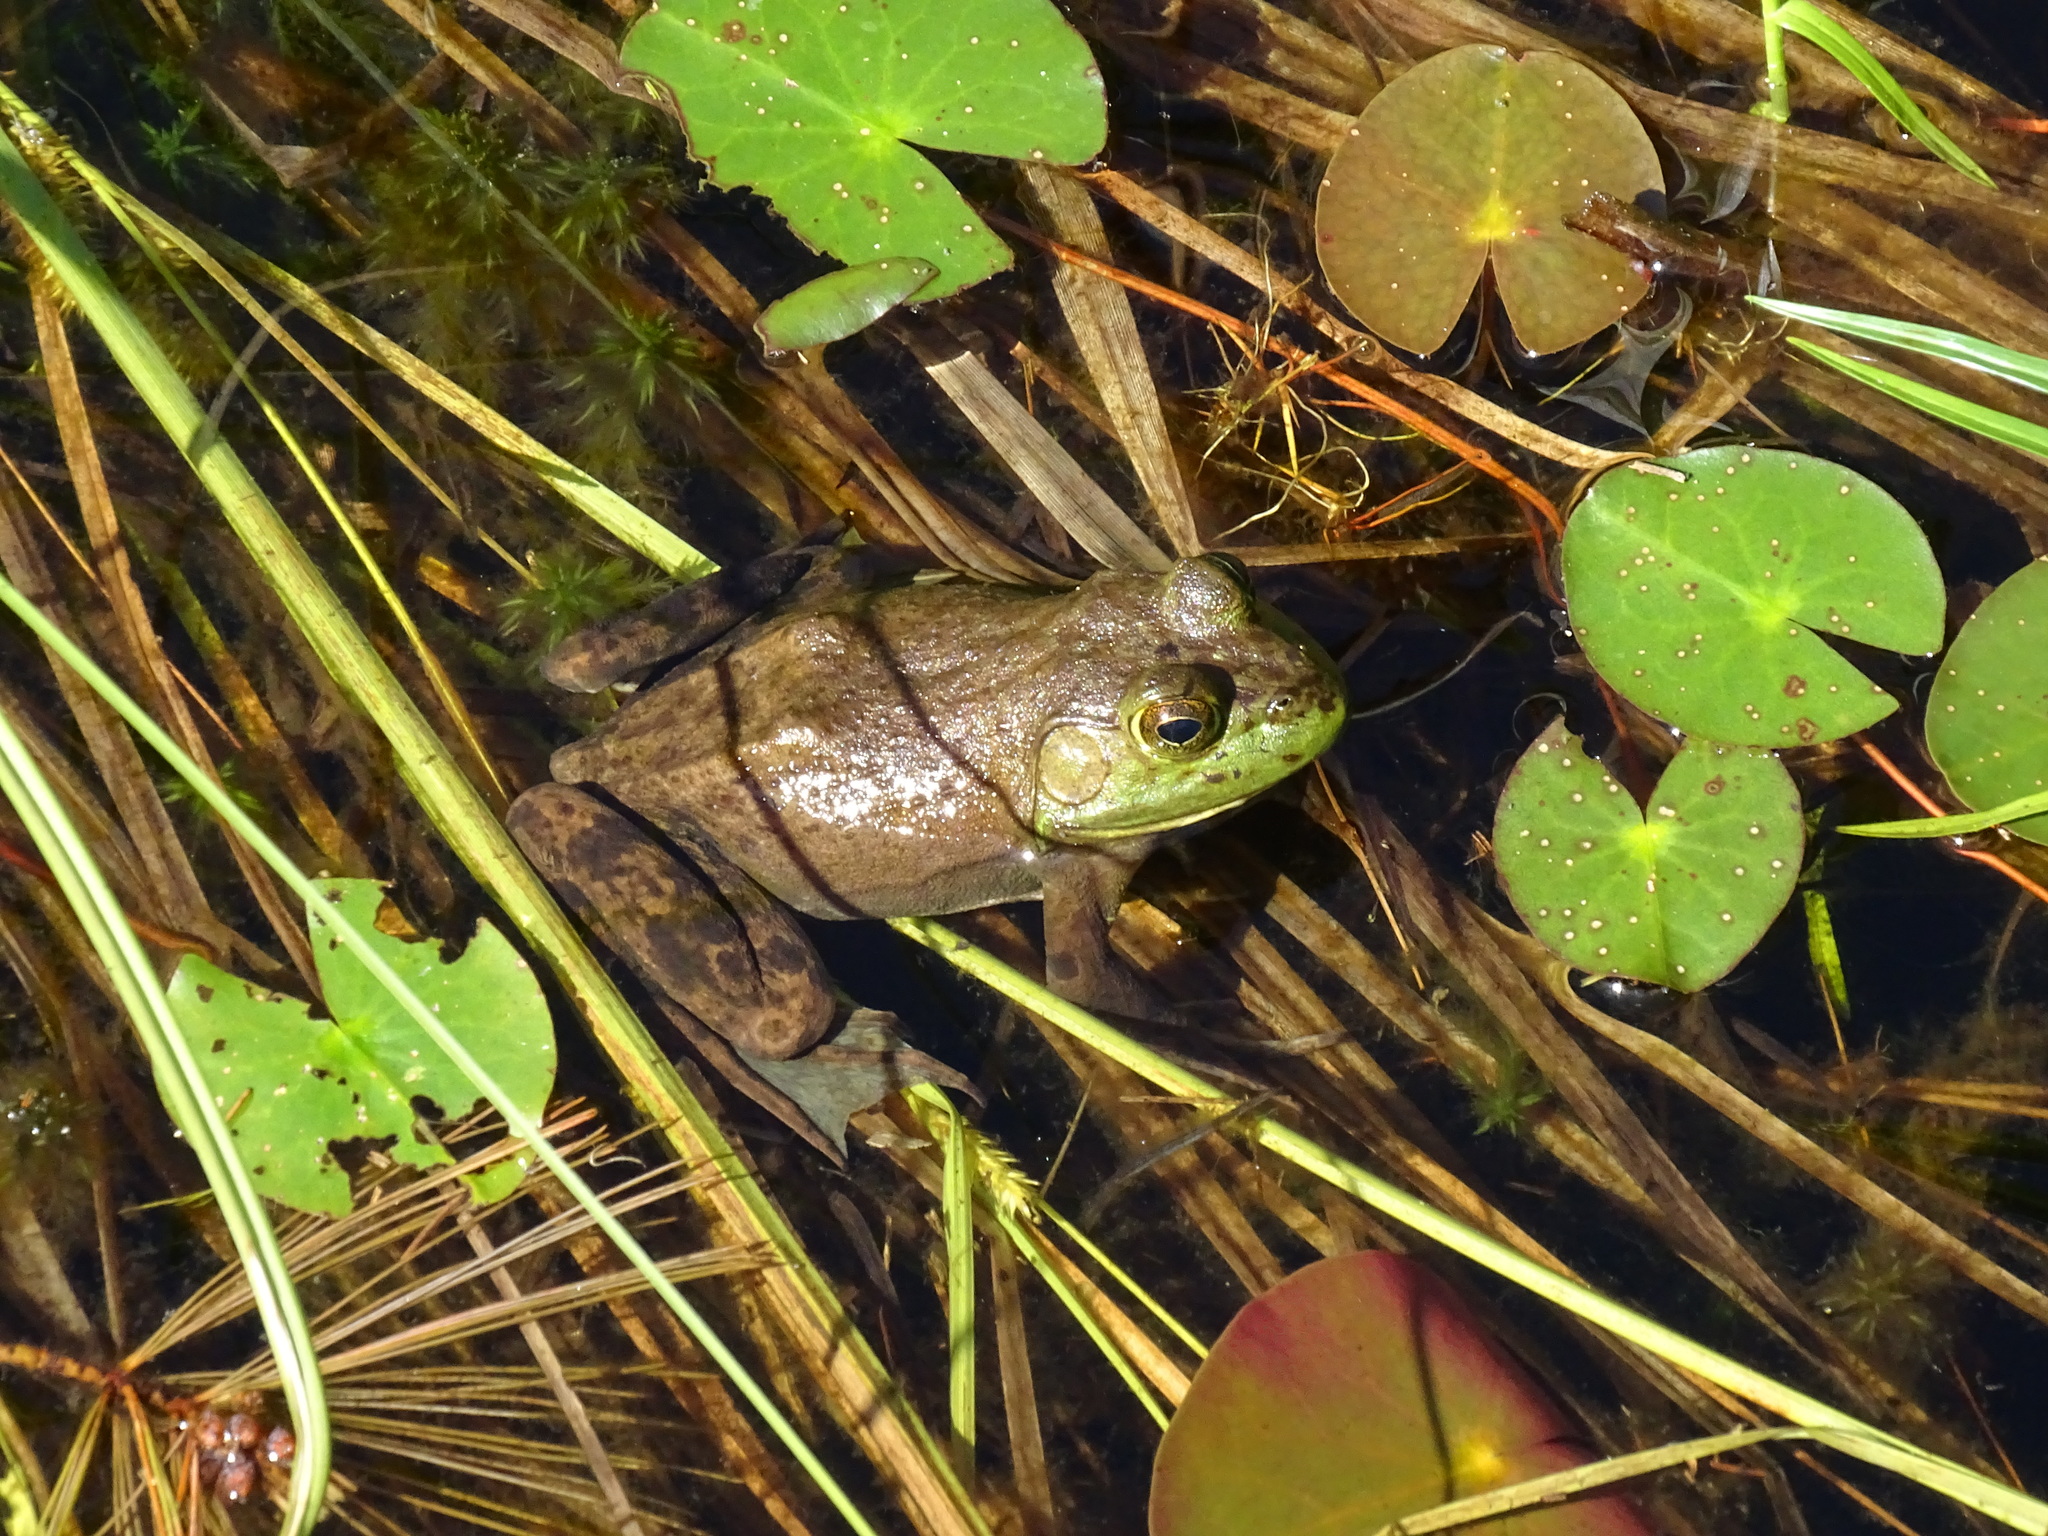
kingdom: Animalia
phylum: Chordata
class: Amphibia
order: Anura
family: Ranidae
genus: Lithobates
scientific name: Lithobates catesbeianus
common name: American bullfrog
